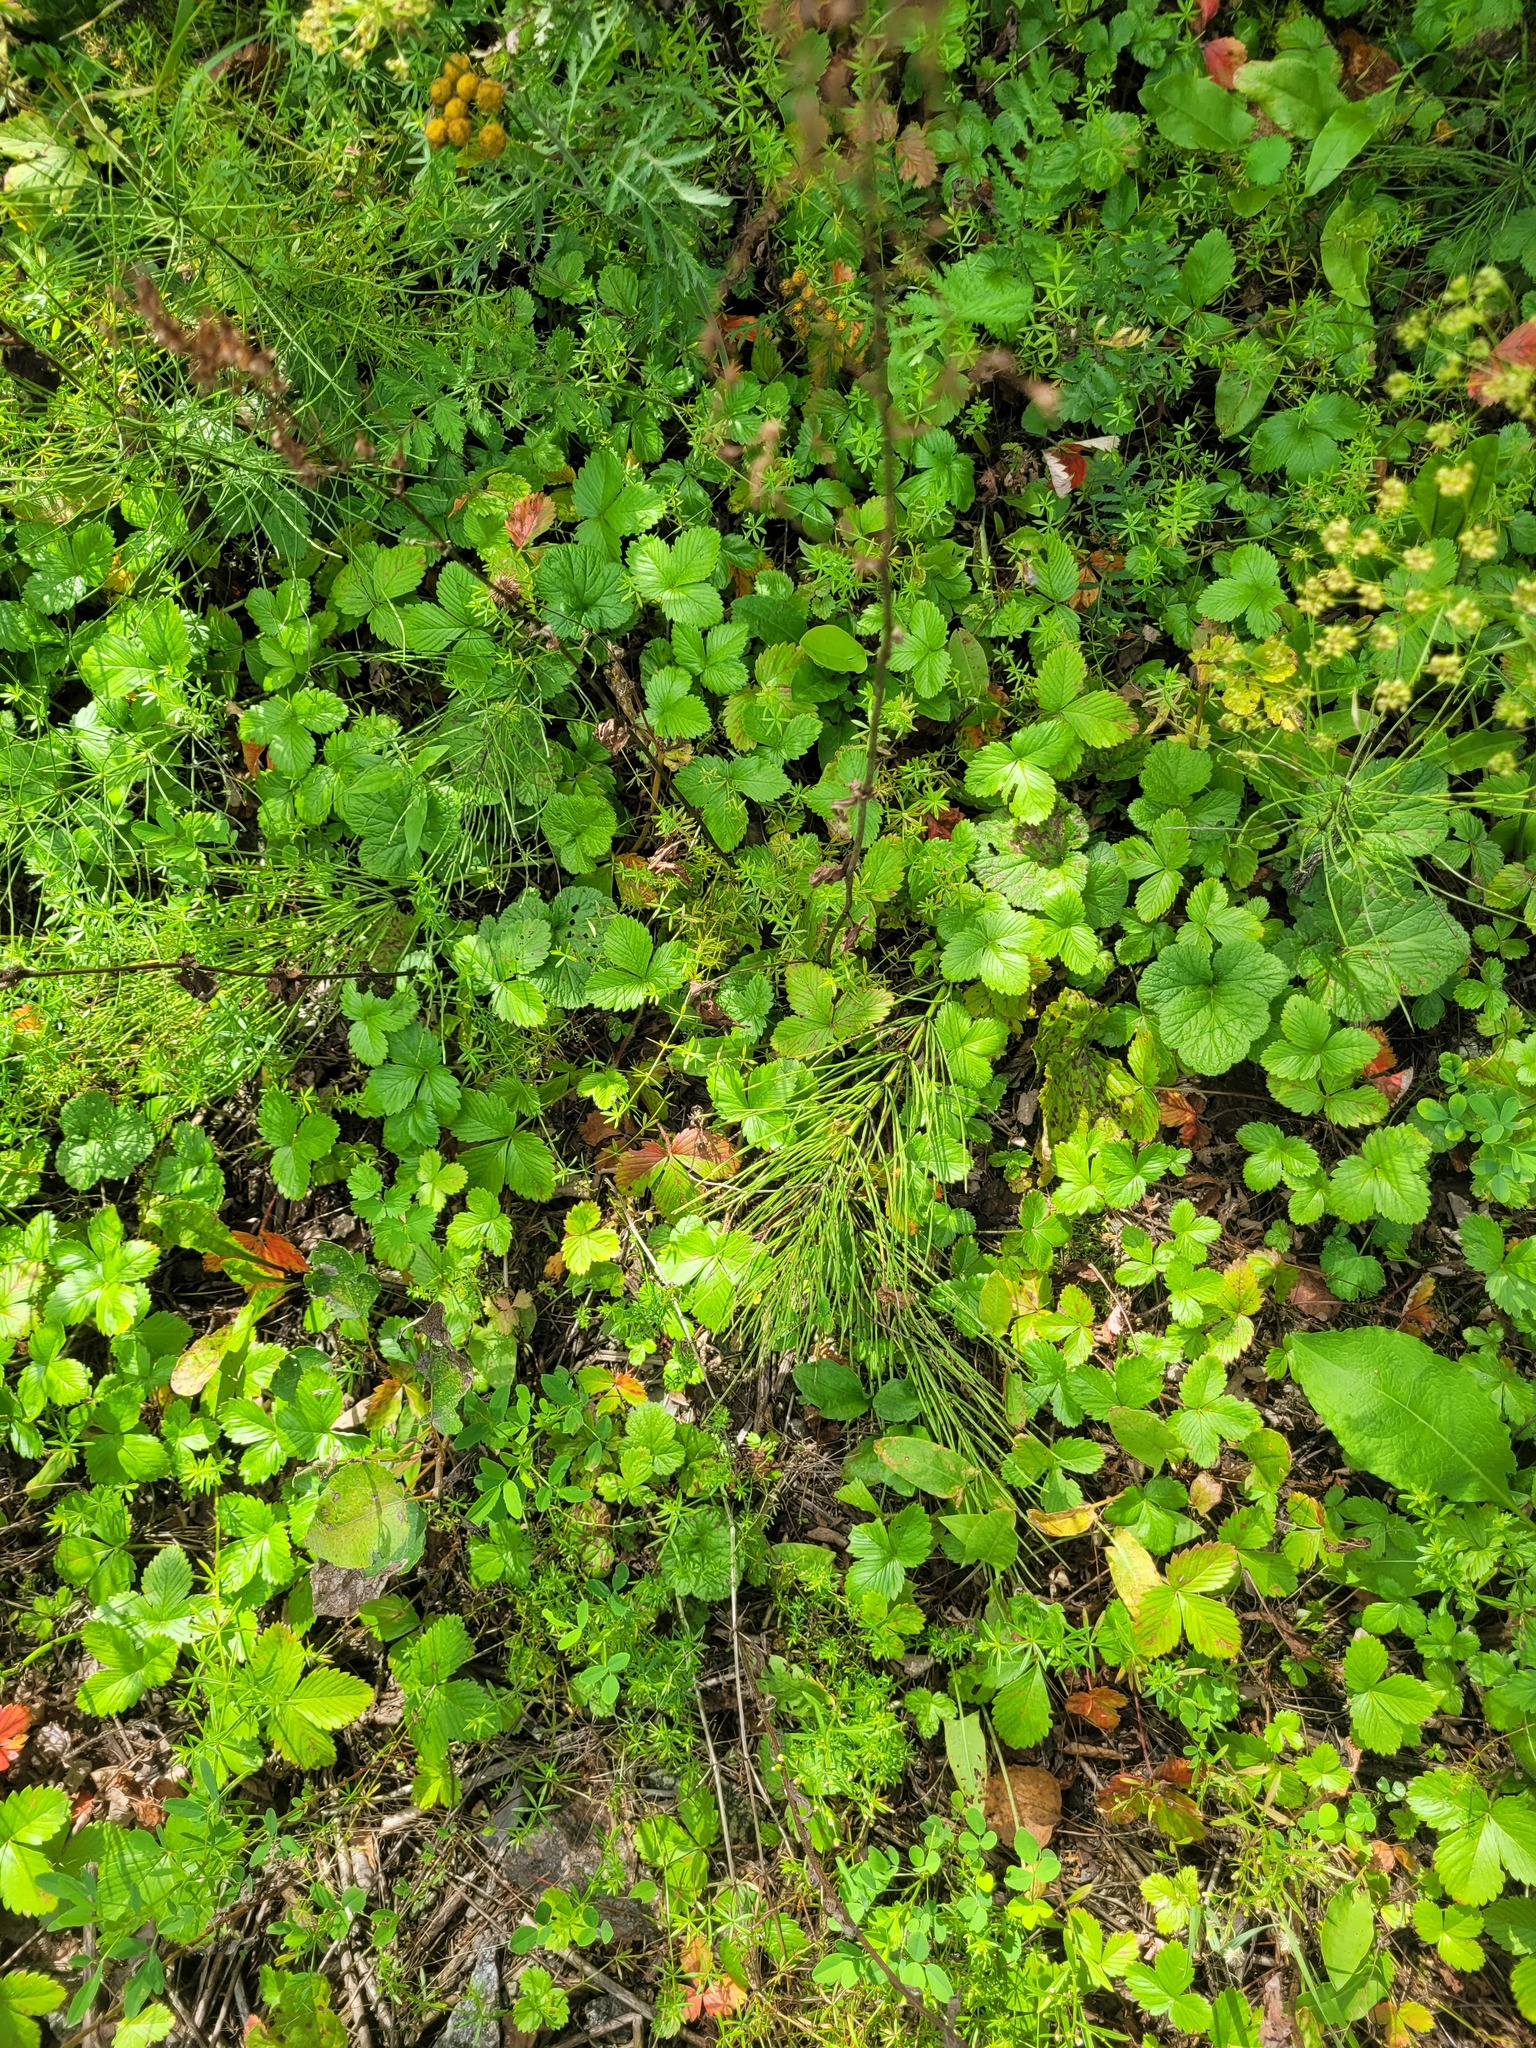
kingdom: Plantae
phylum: Tracheophyta
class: Magnoliopsida
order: Rosales
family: Rosaceae
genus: Fragaria
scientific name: Fragaria viridis
